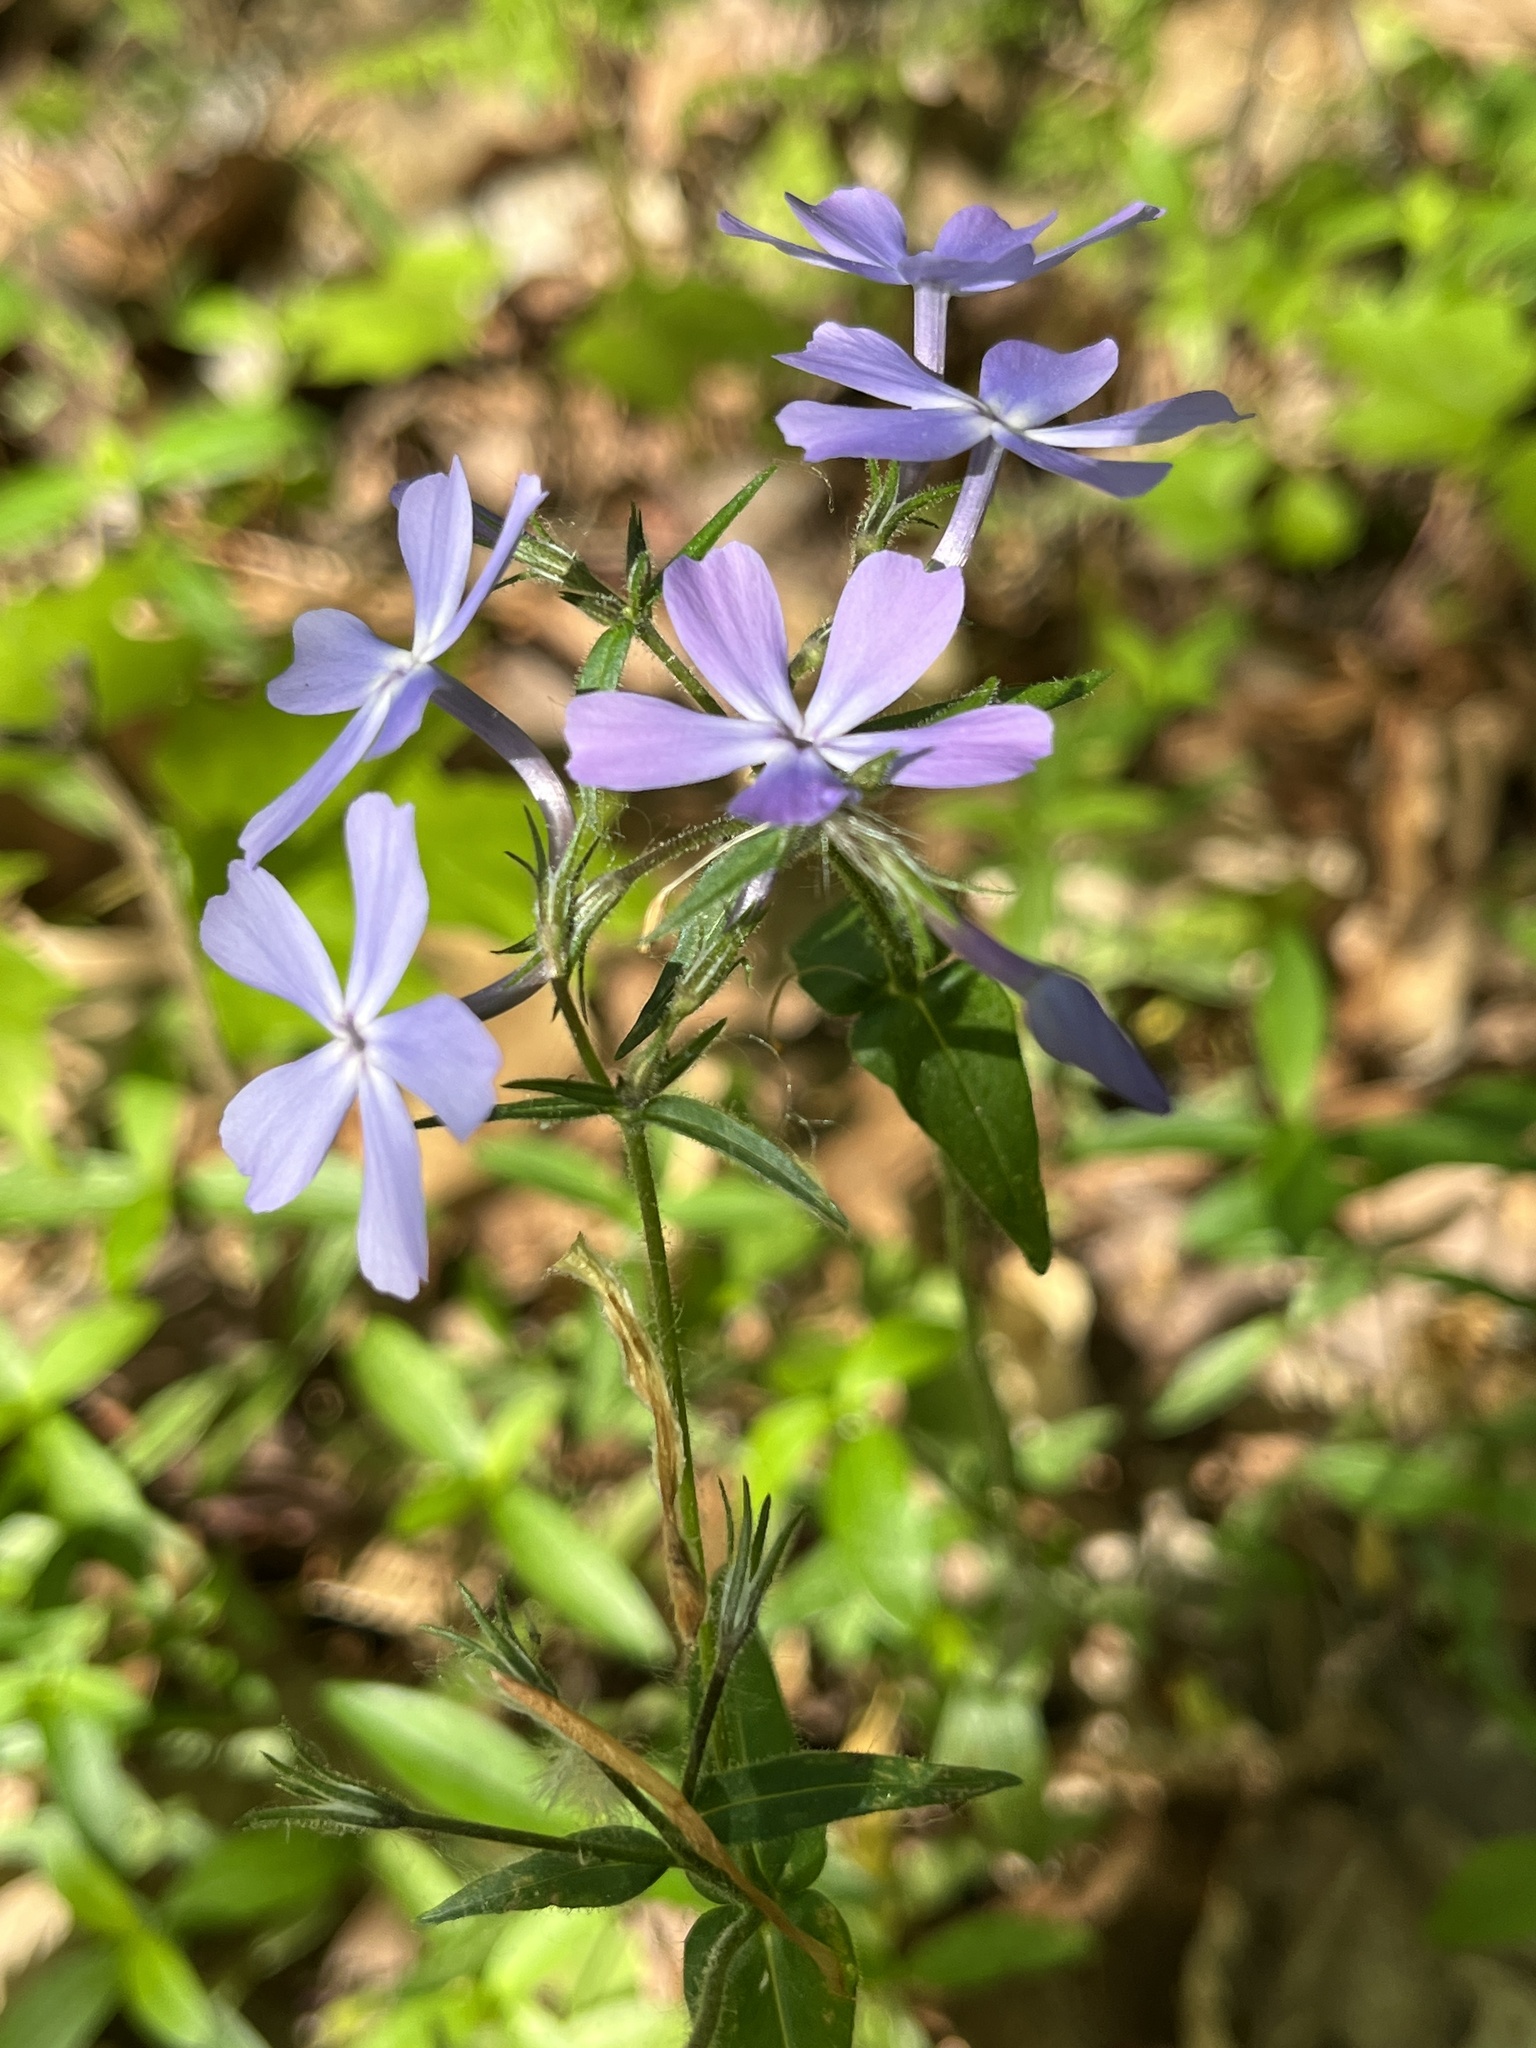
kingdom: Plantae
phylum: Tracheophyta
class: Magnoliopsida
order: Ericales
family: Polemoniaceae
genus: Phlox
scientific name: Phlox divaricata
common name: Blue phlox
